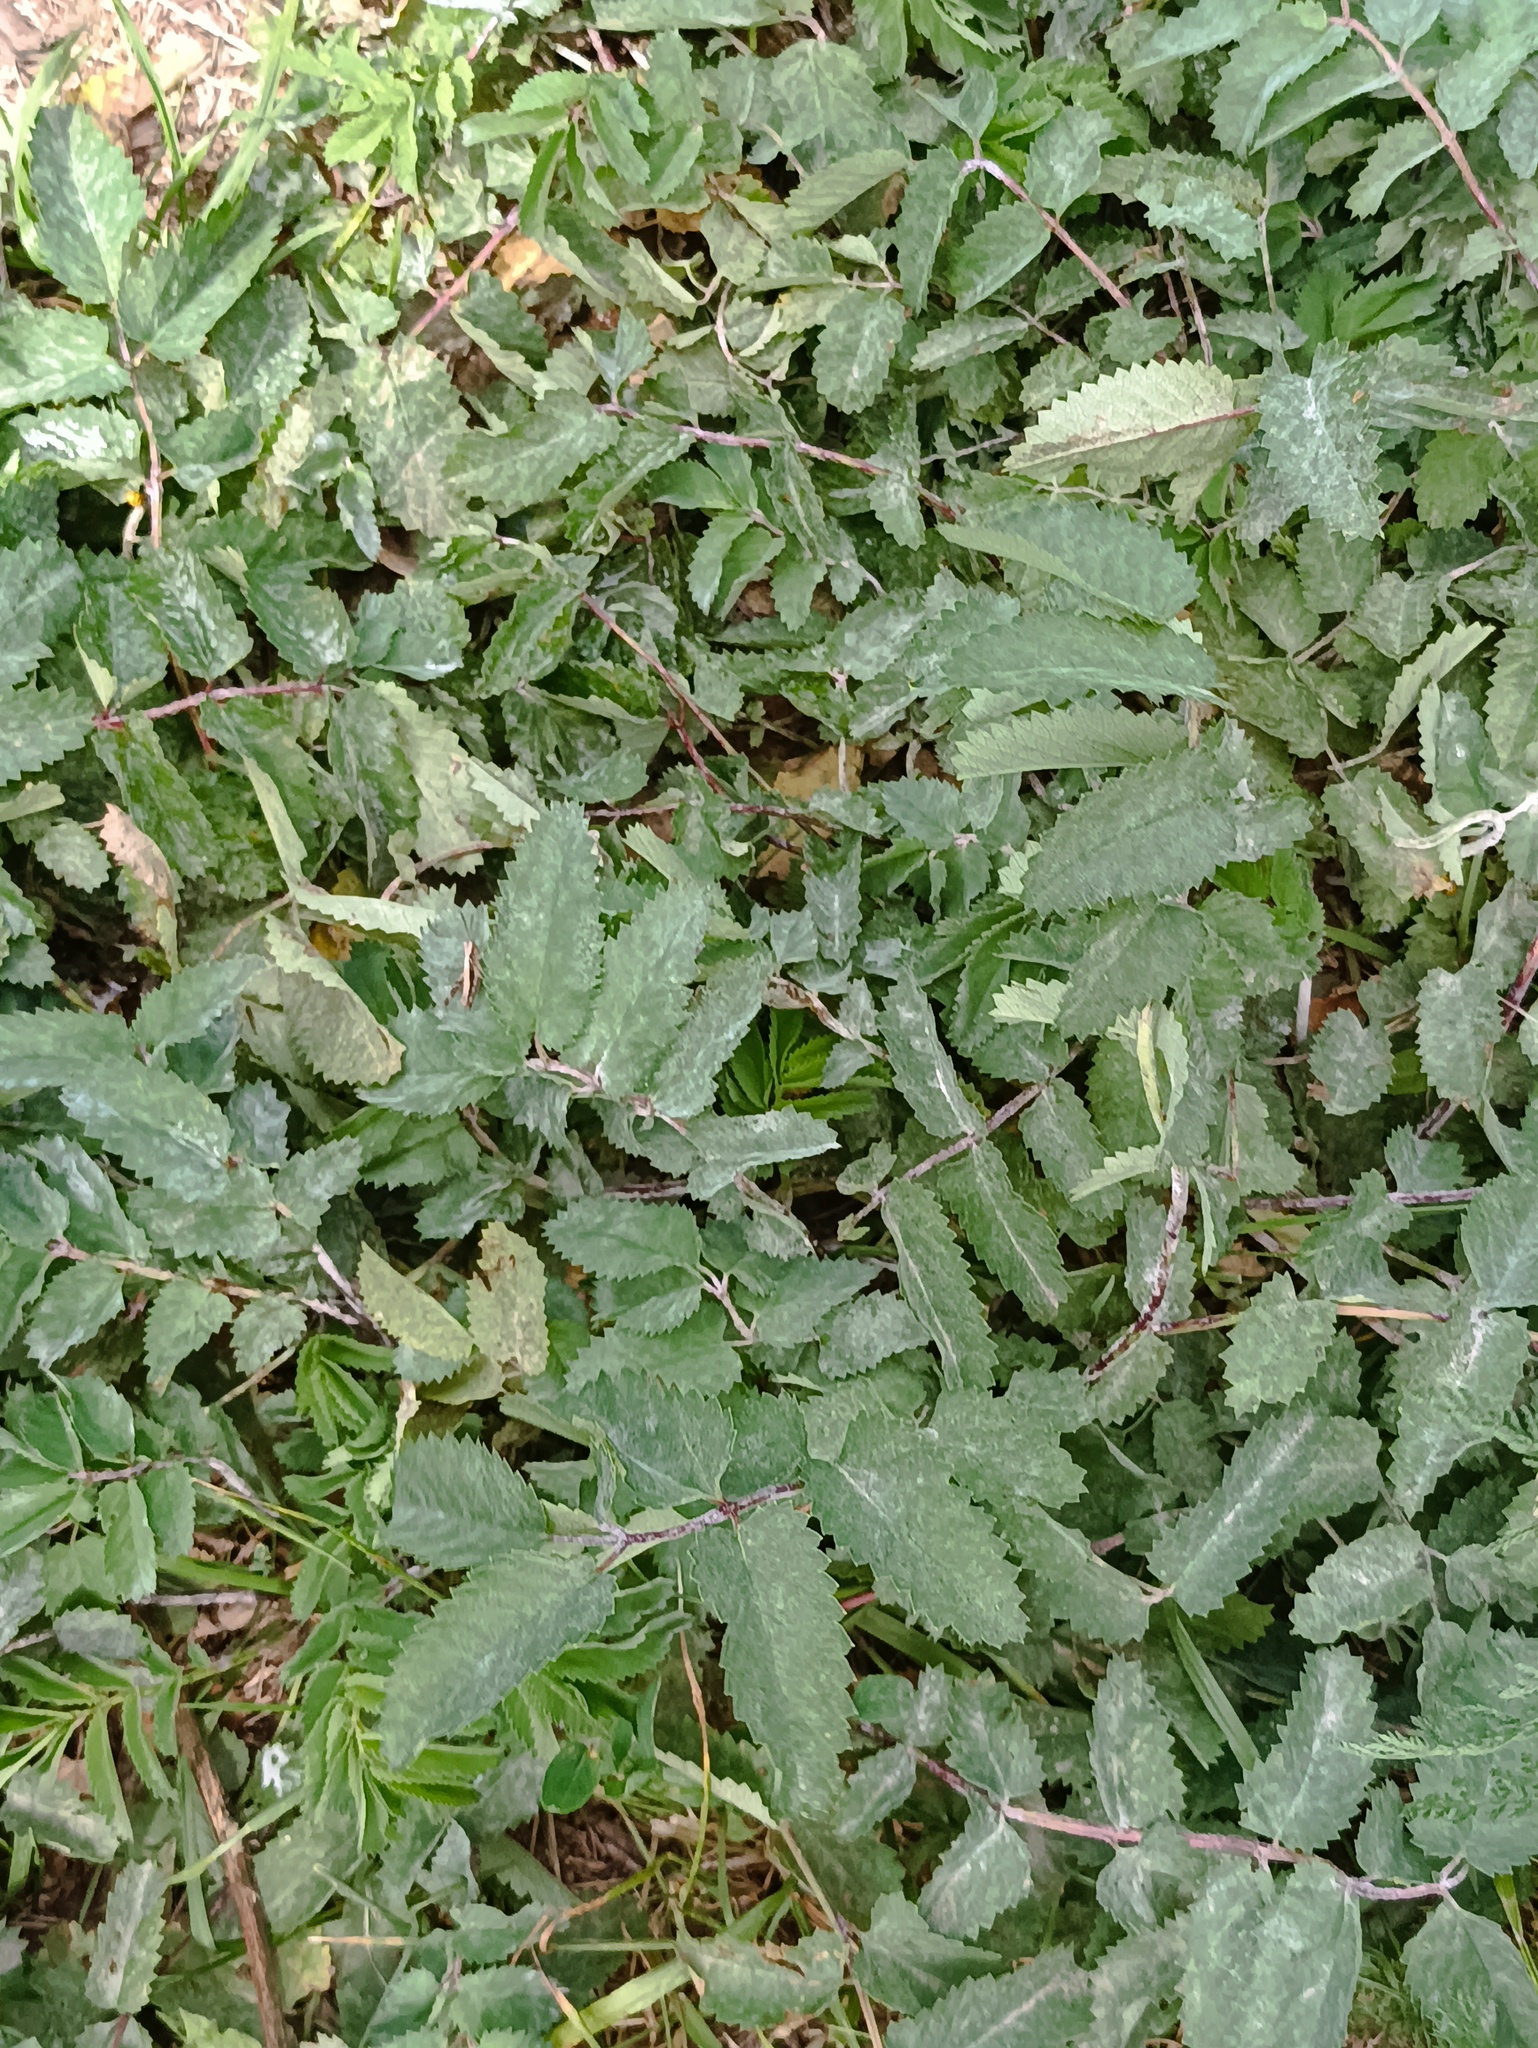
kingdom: Plantae
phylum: Tracheophyta
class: Magnoliopsida
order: Rosales
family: Rosaceae
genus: Sanguisorba
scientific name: Sanguisorba officinalis
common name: Great burnet
